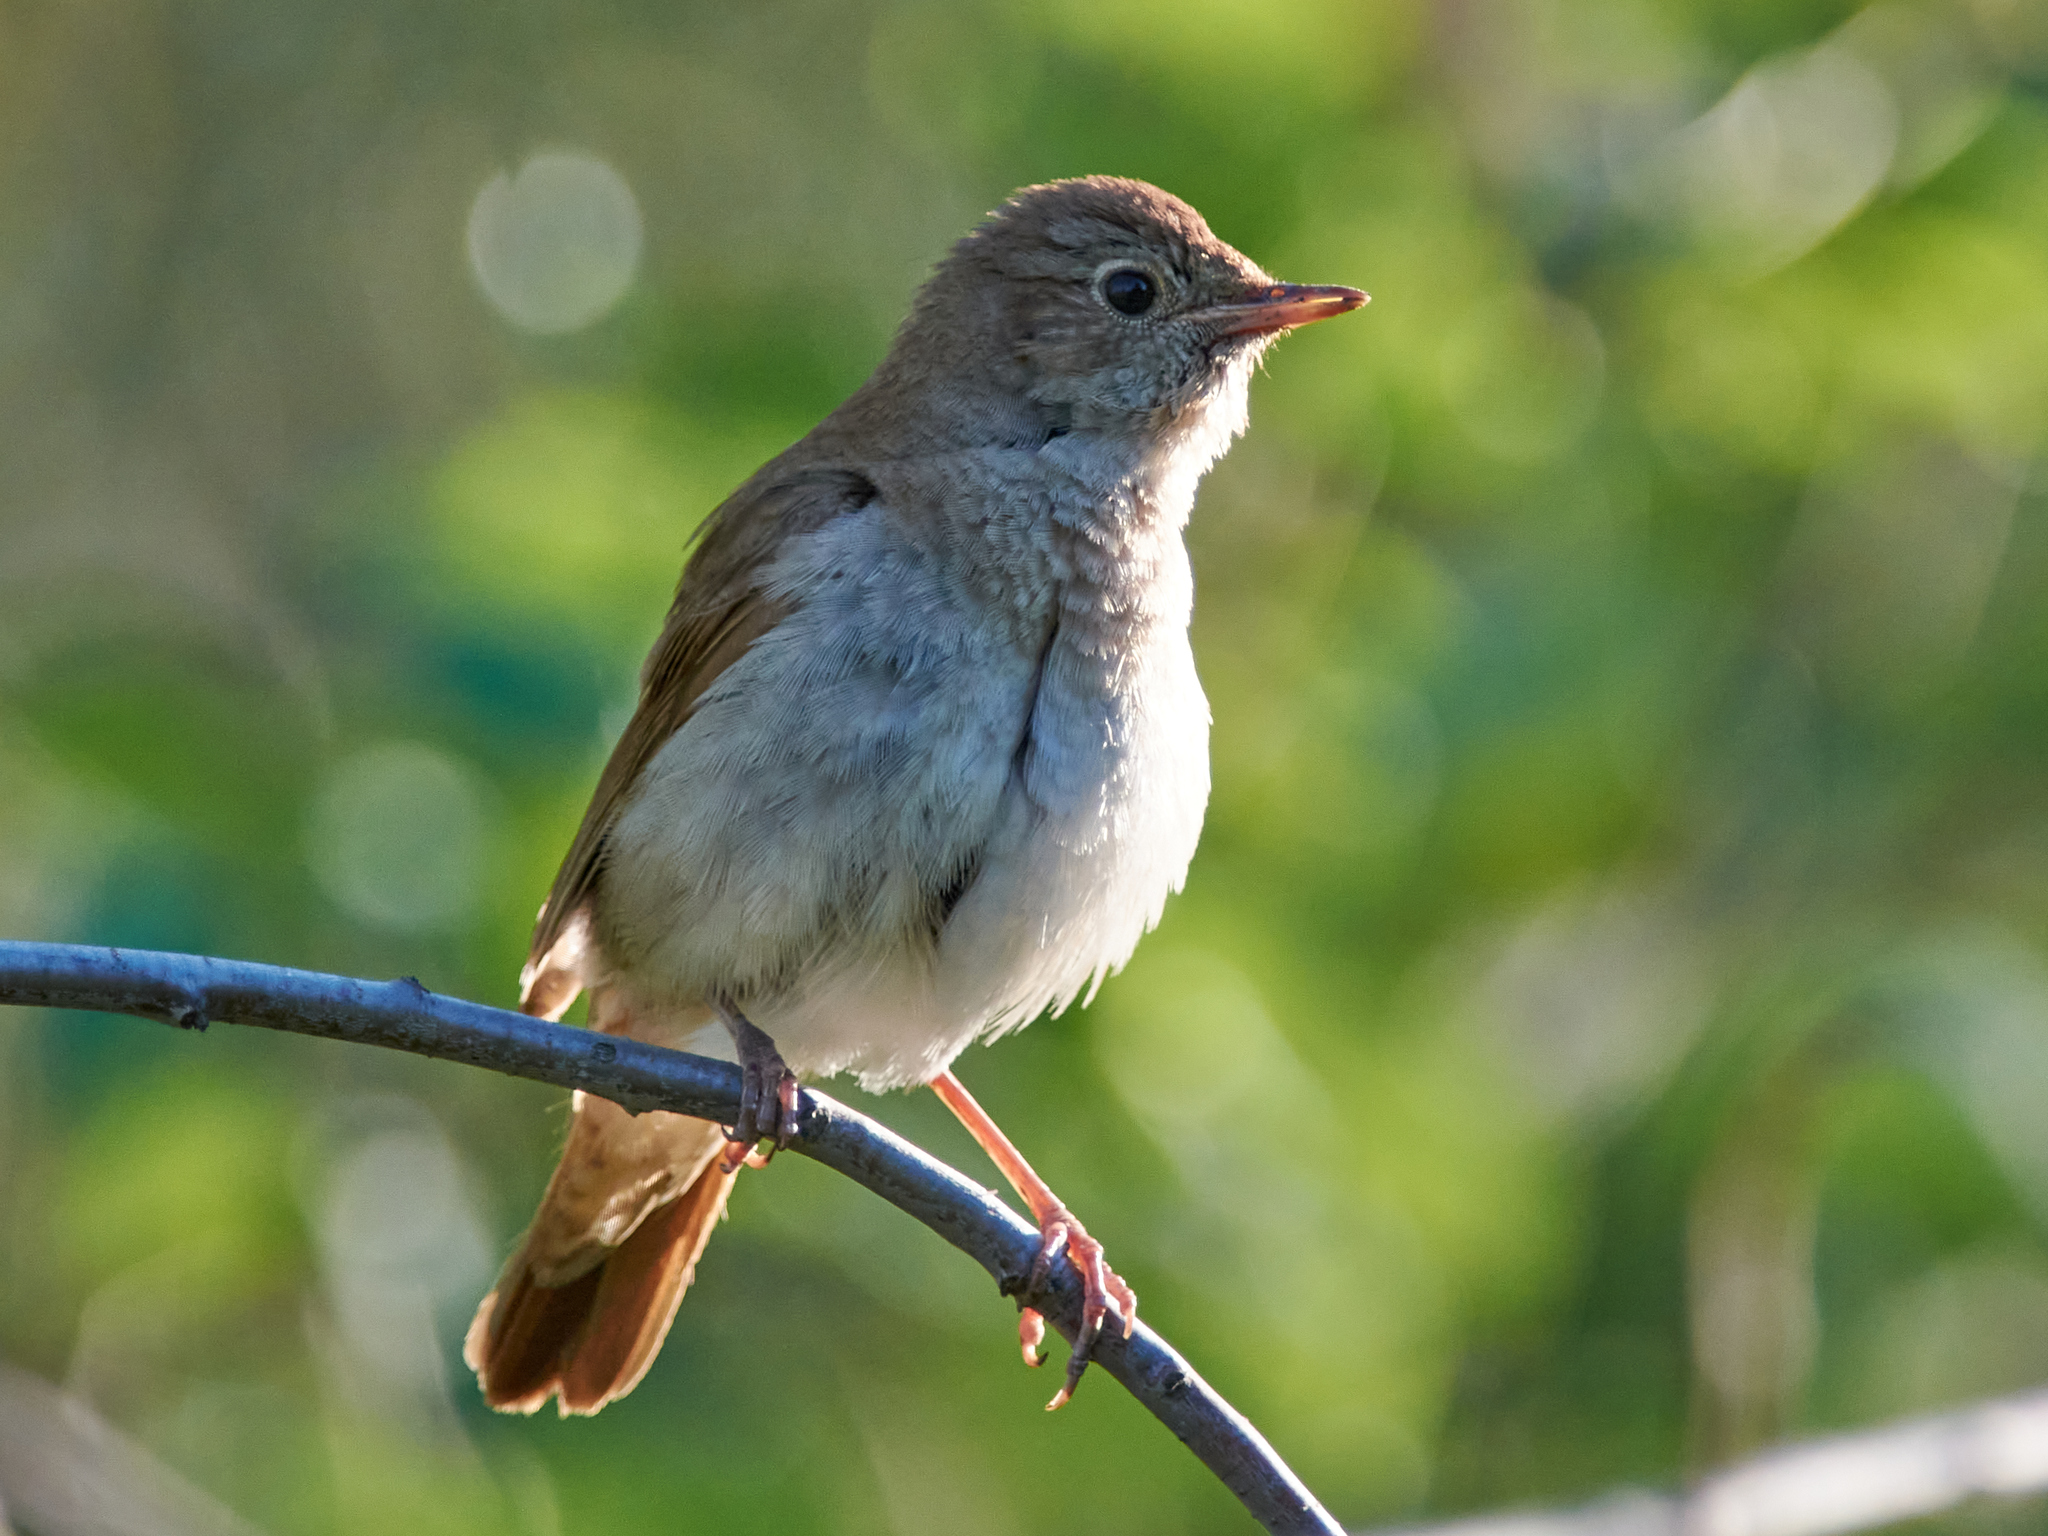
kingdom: Animalia
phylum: Chordata
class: Aves
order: Passeriformes
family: Muscicapidae
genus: Luscinia
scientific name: Luscinia luscinia
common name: Thrush nightingale
